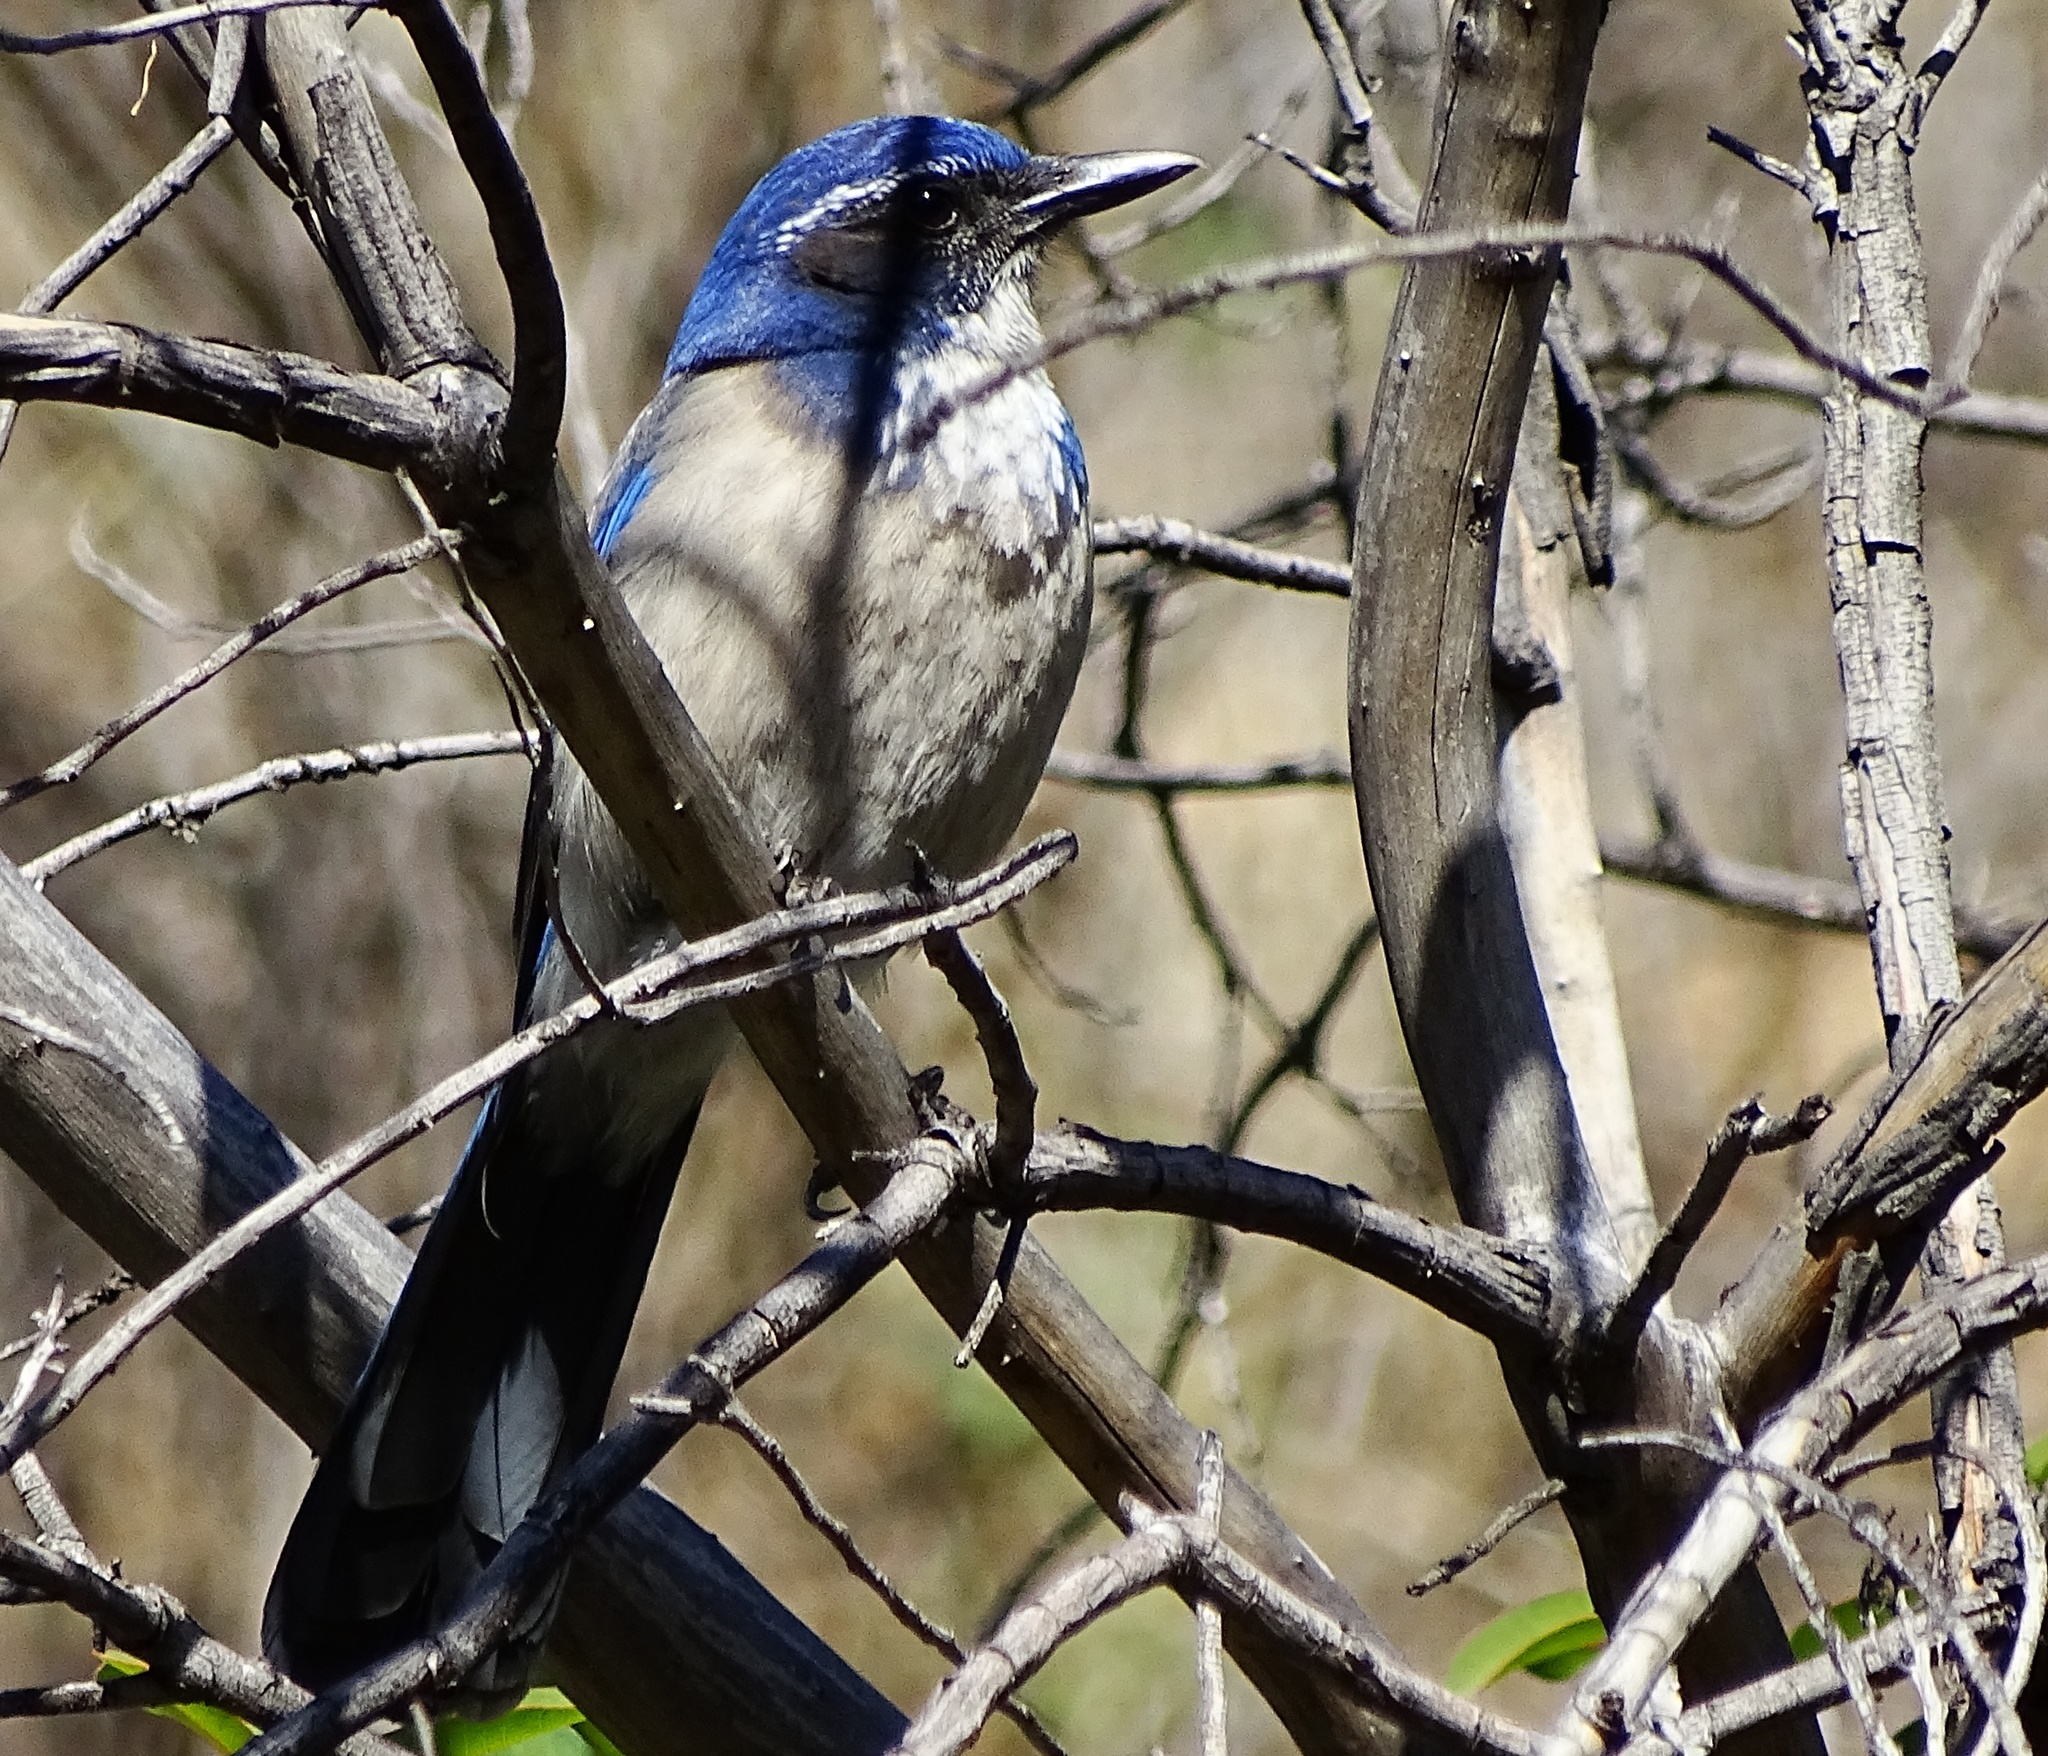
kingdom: Animalia
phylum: Chordata
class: Aves
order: Passeriformes
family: Corvidae
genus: Aphelocoma
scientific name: Aphelocoma californica
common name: California scrub-jay
